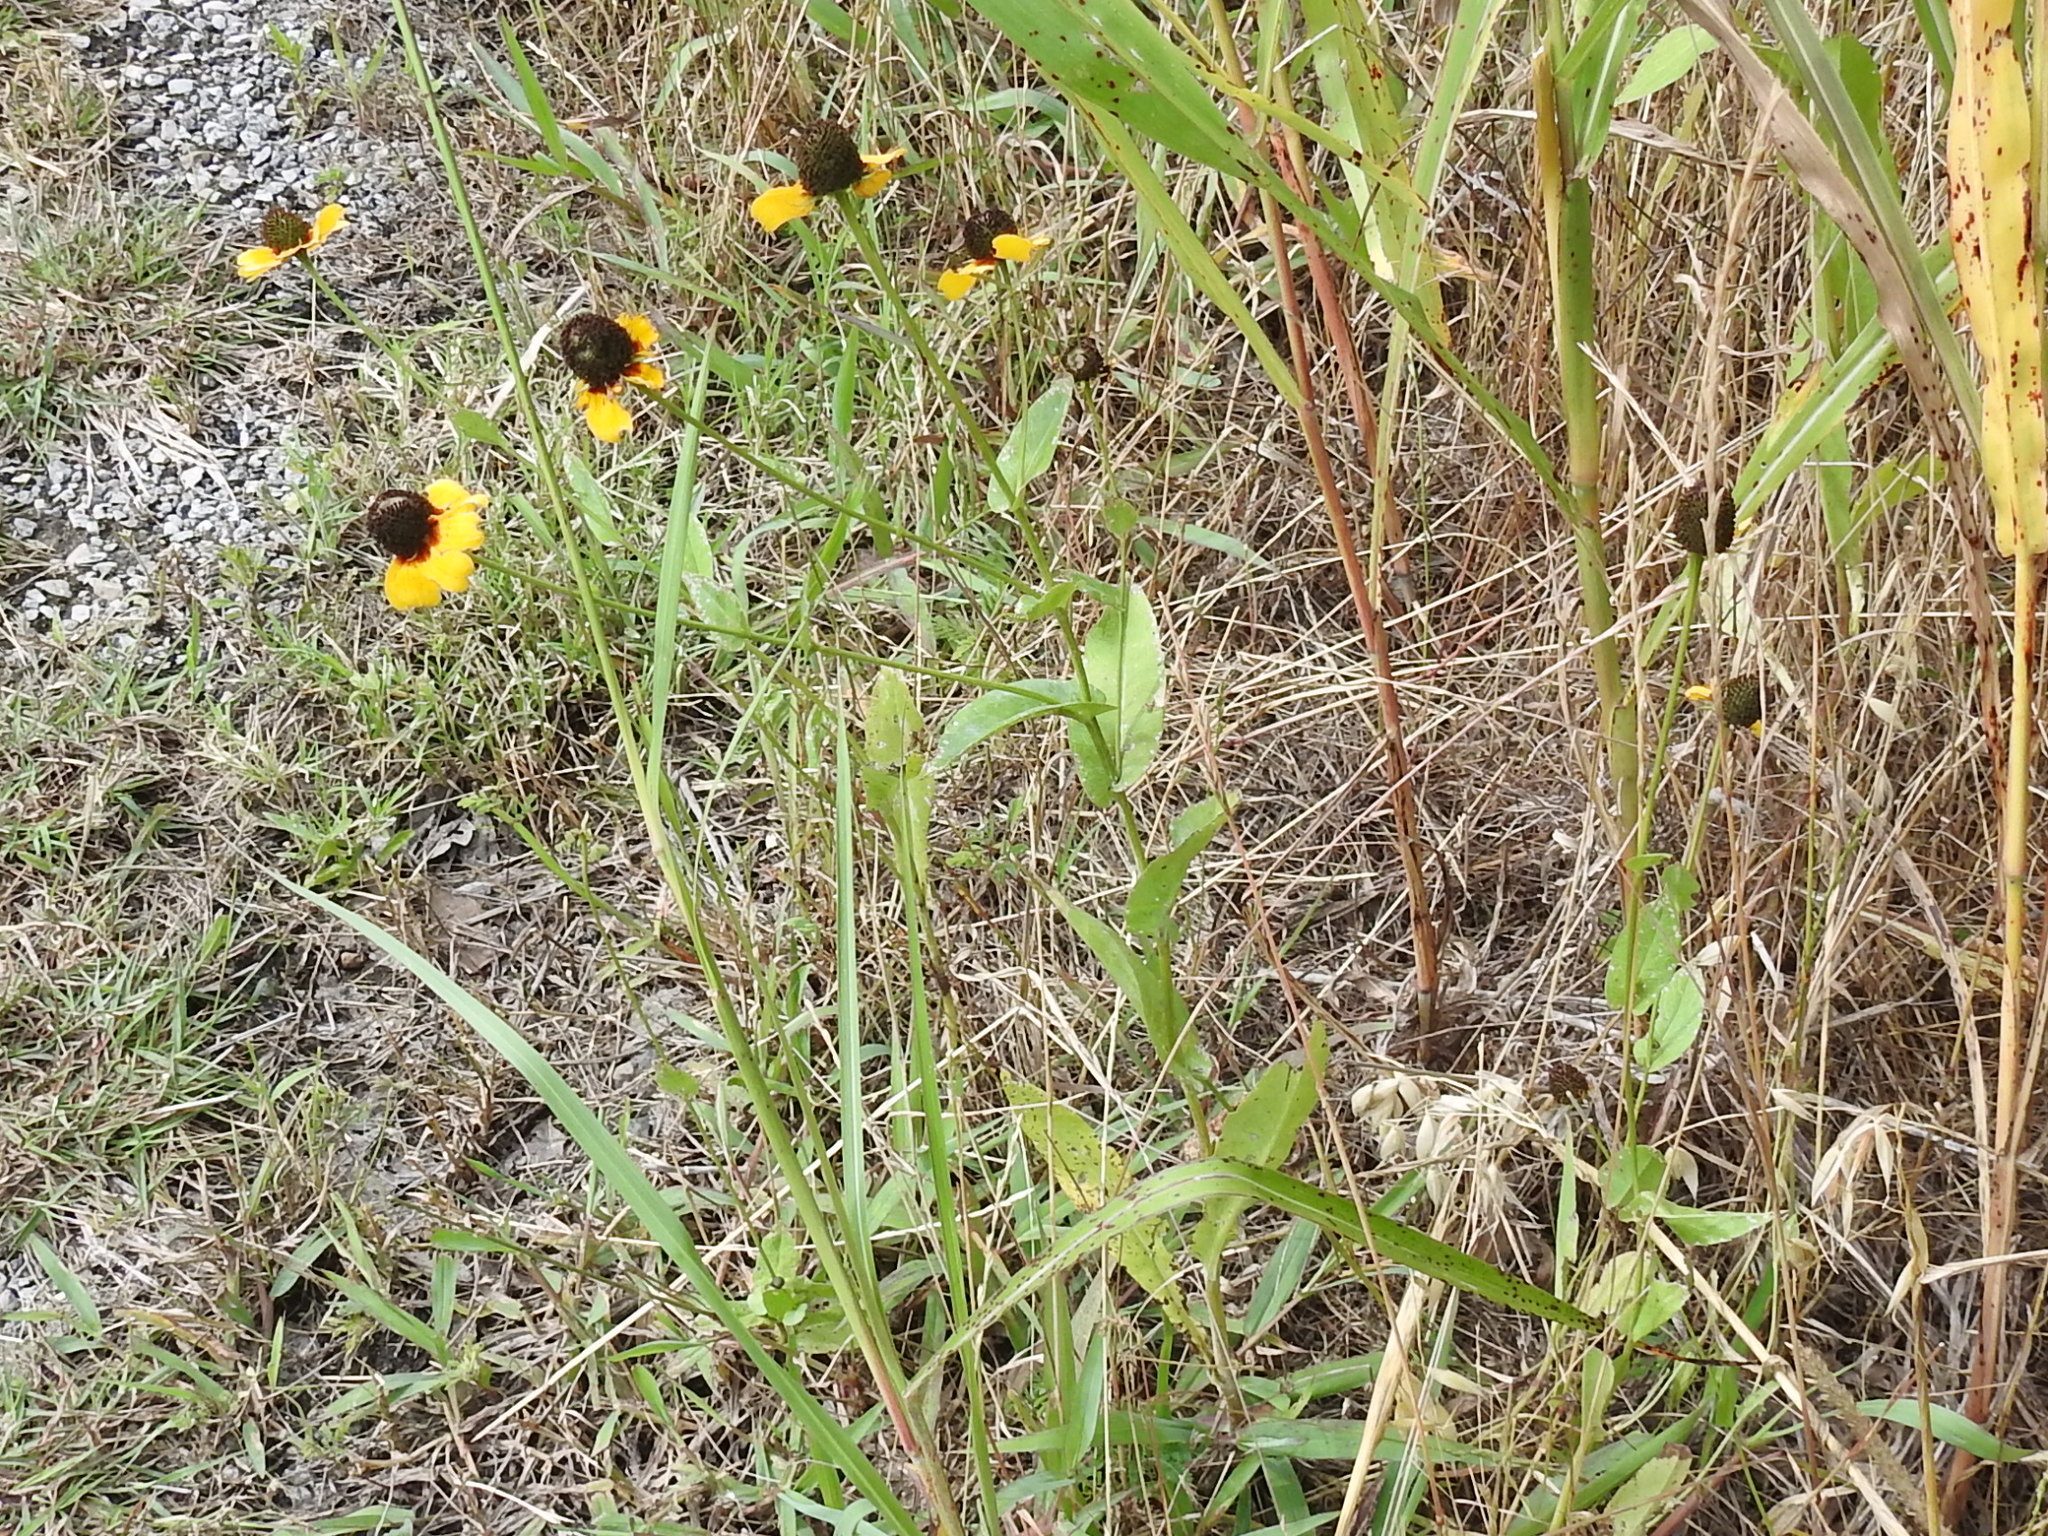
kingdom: Plantae
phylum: Tracheophyta
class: Magnoliopsida
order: Asterales
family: Asteraceae
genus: Rudbeckia
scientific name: Rudbeckia amplexicaulis
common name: Clasping-leaf coneflower
